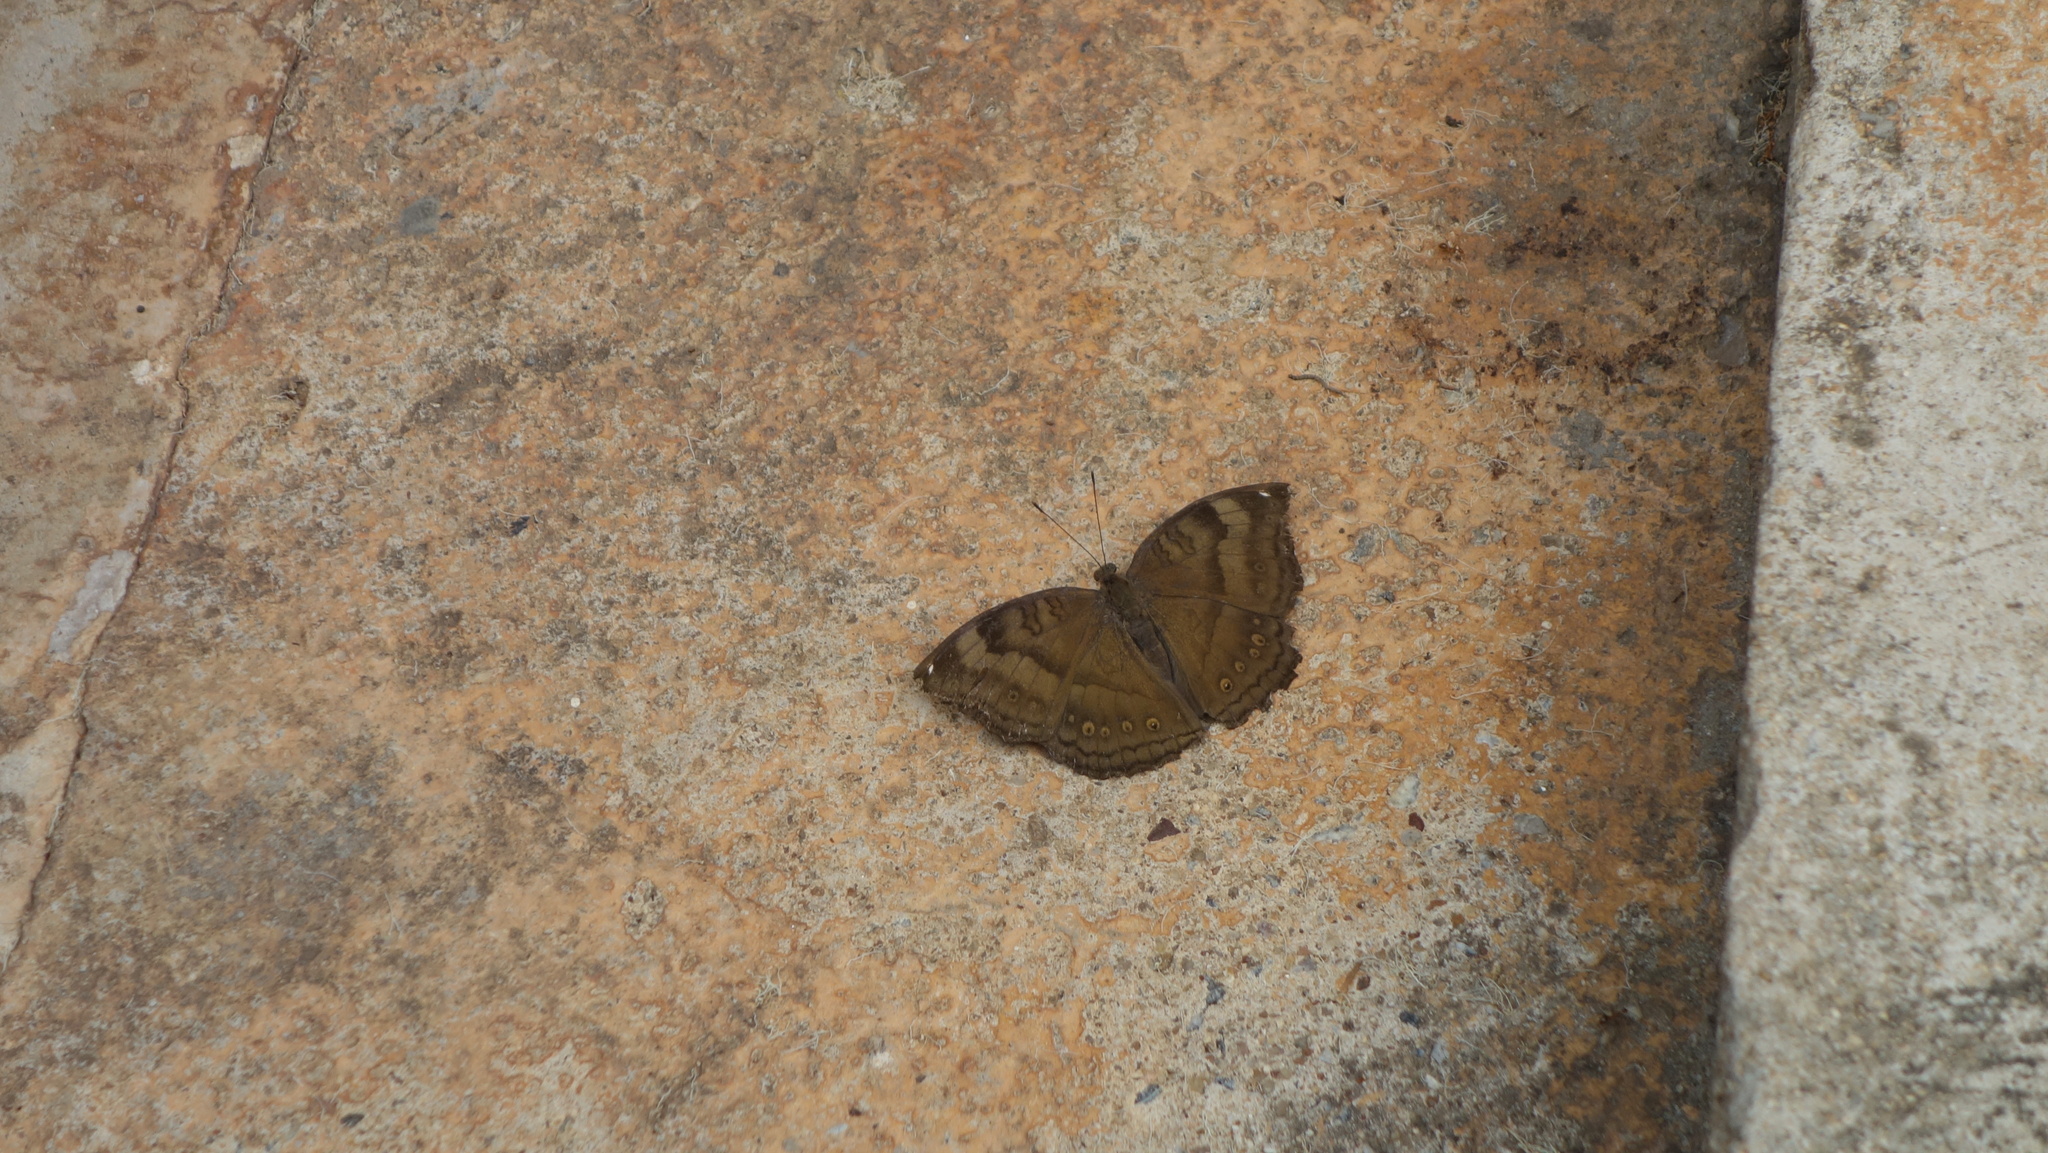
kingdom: Animalia
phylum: Arthropoda
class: Insecta
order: Lepidoptera
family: Nymphalidae
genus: Junonia
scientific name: Junonia iphita
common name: Chocolate pansy
